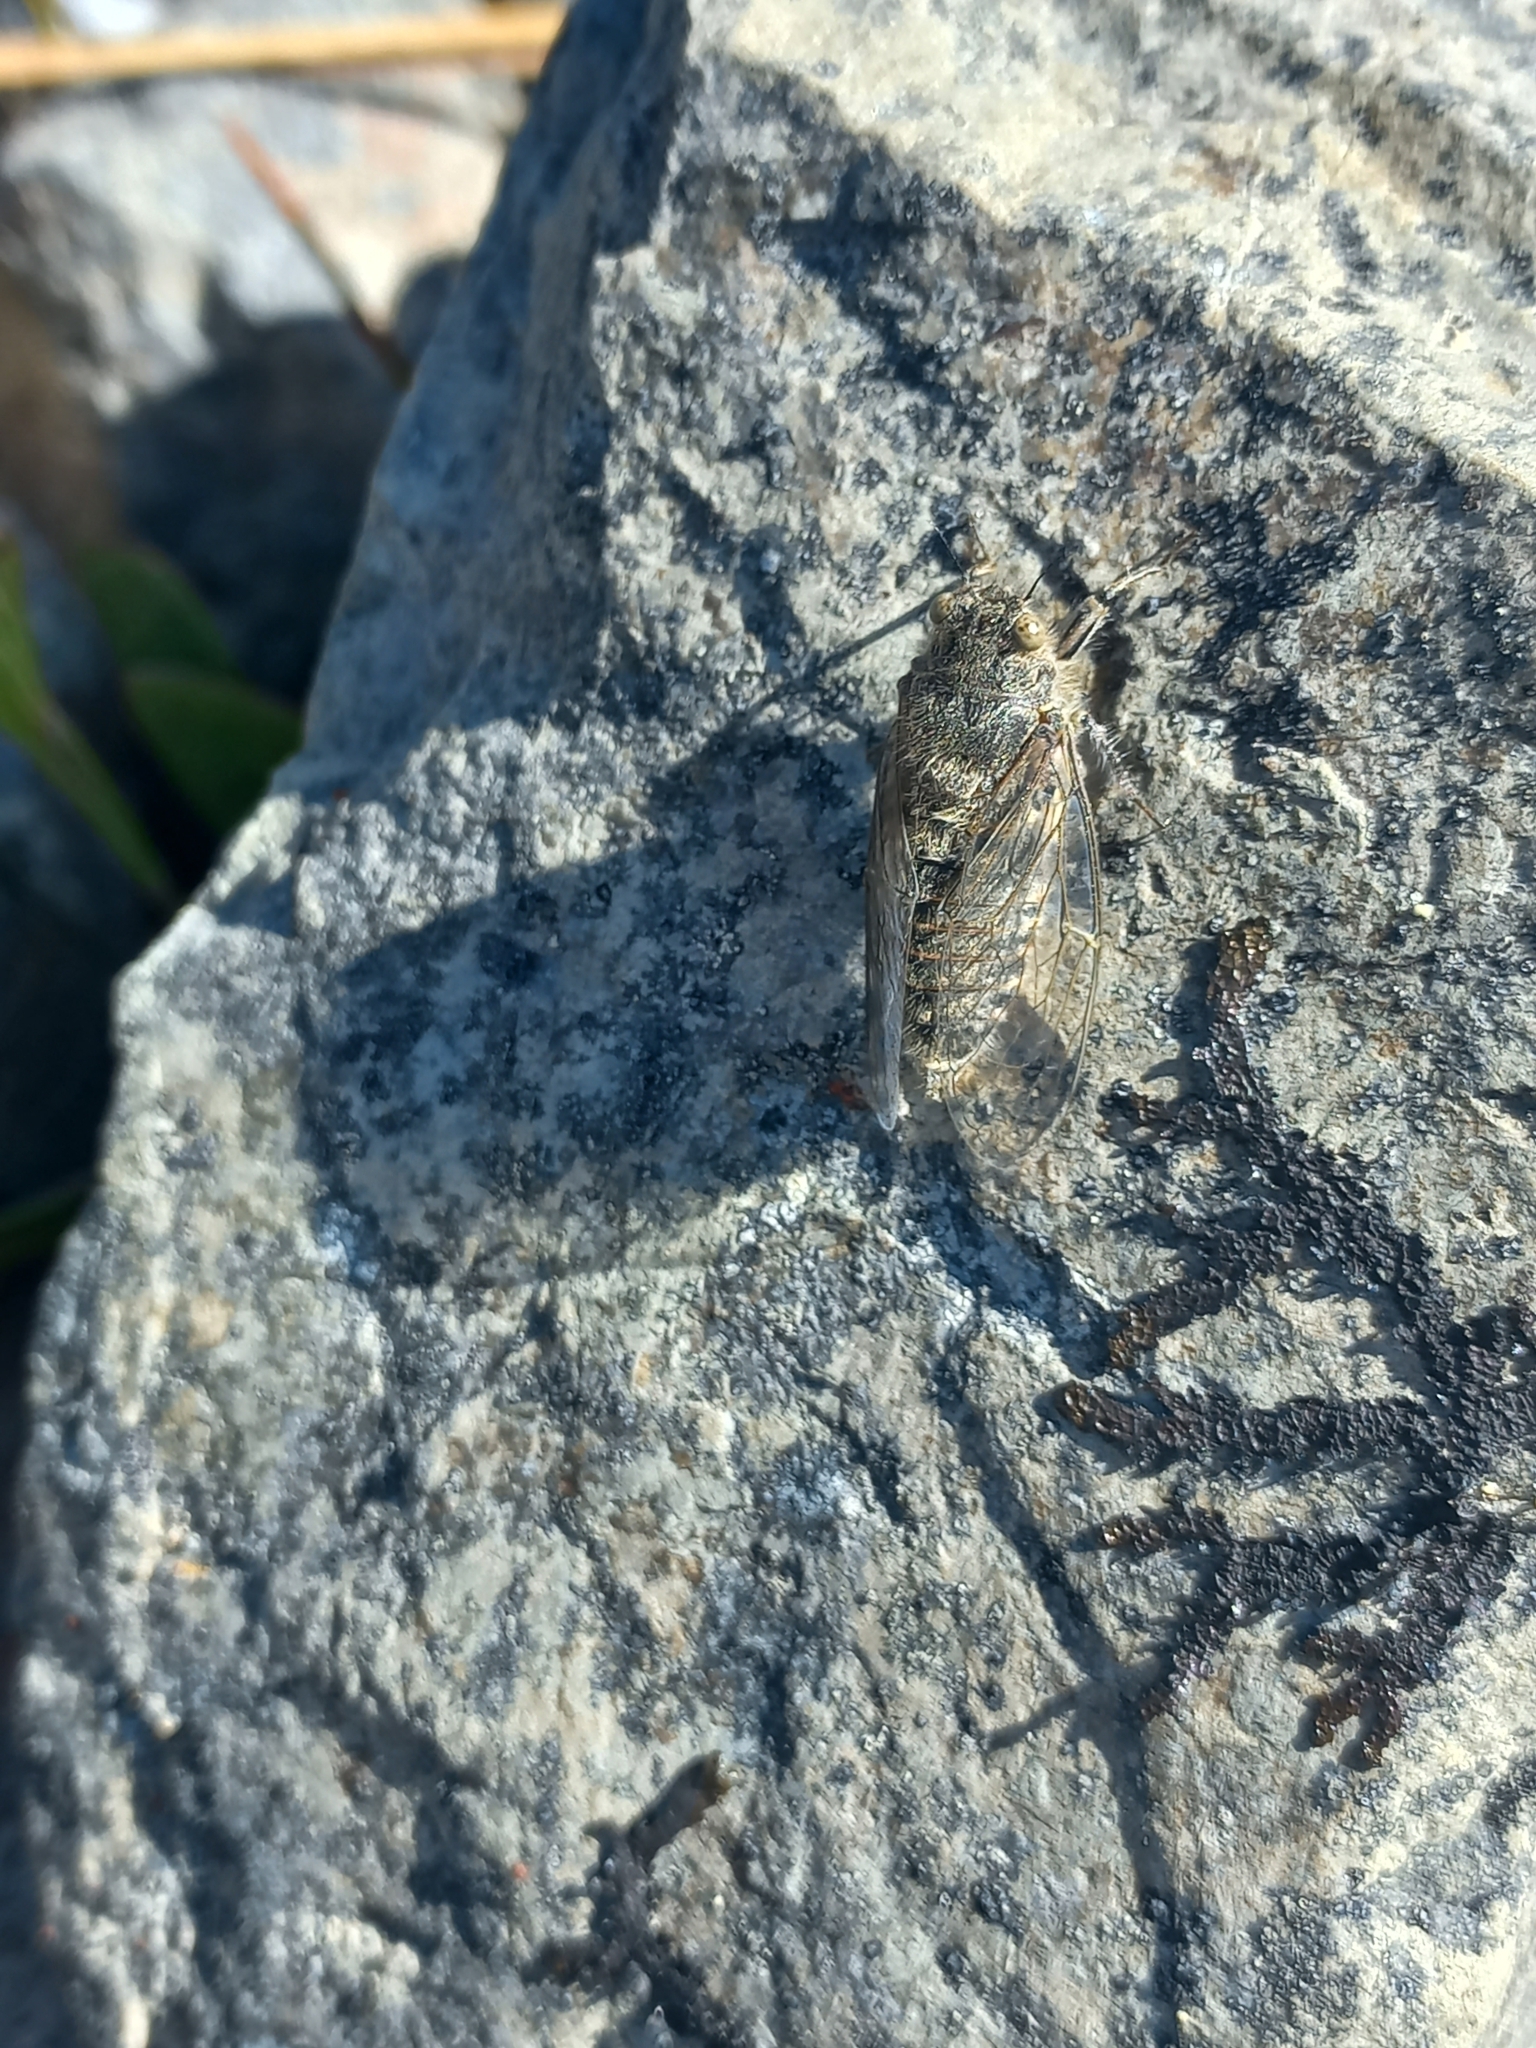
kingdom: Animalia
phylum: Arthropoda
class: Insecta
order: Hemiptera
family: Cicadidae
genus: Maoricicada
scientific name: Maoricicada mangu
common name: Canterbury scree cicada
